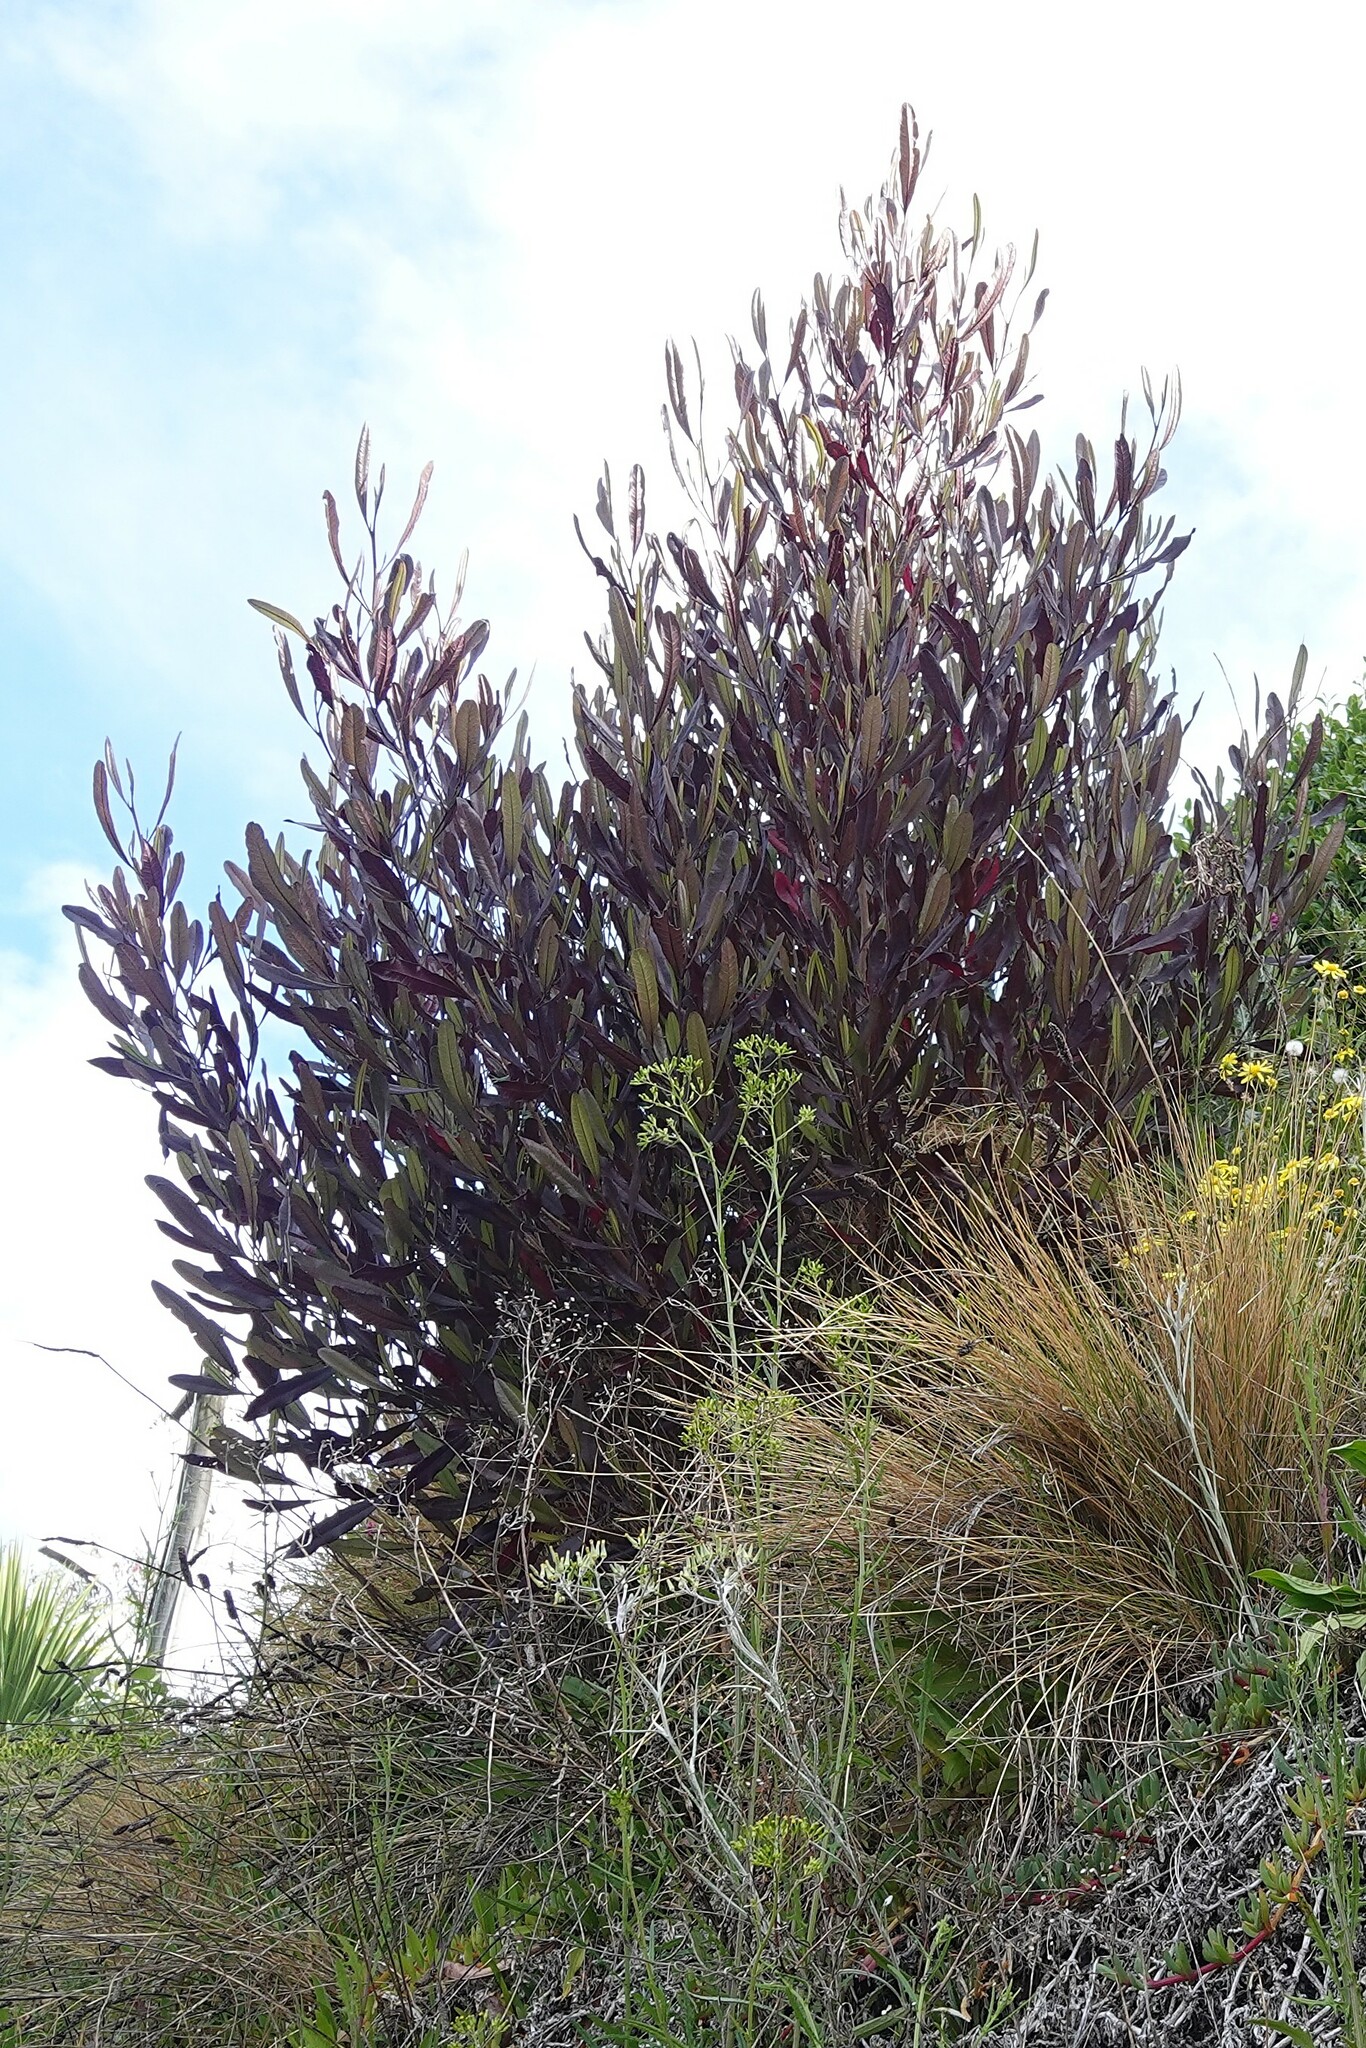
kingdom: Plantae
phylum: Tracheophyta
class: Magnoliopsida
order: Sapindales
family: Sapindaceae
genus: Dodonaea
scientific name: Dodonaea viscosa
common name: Hopbush
